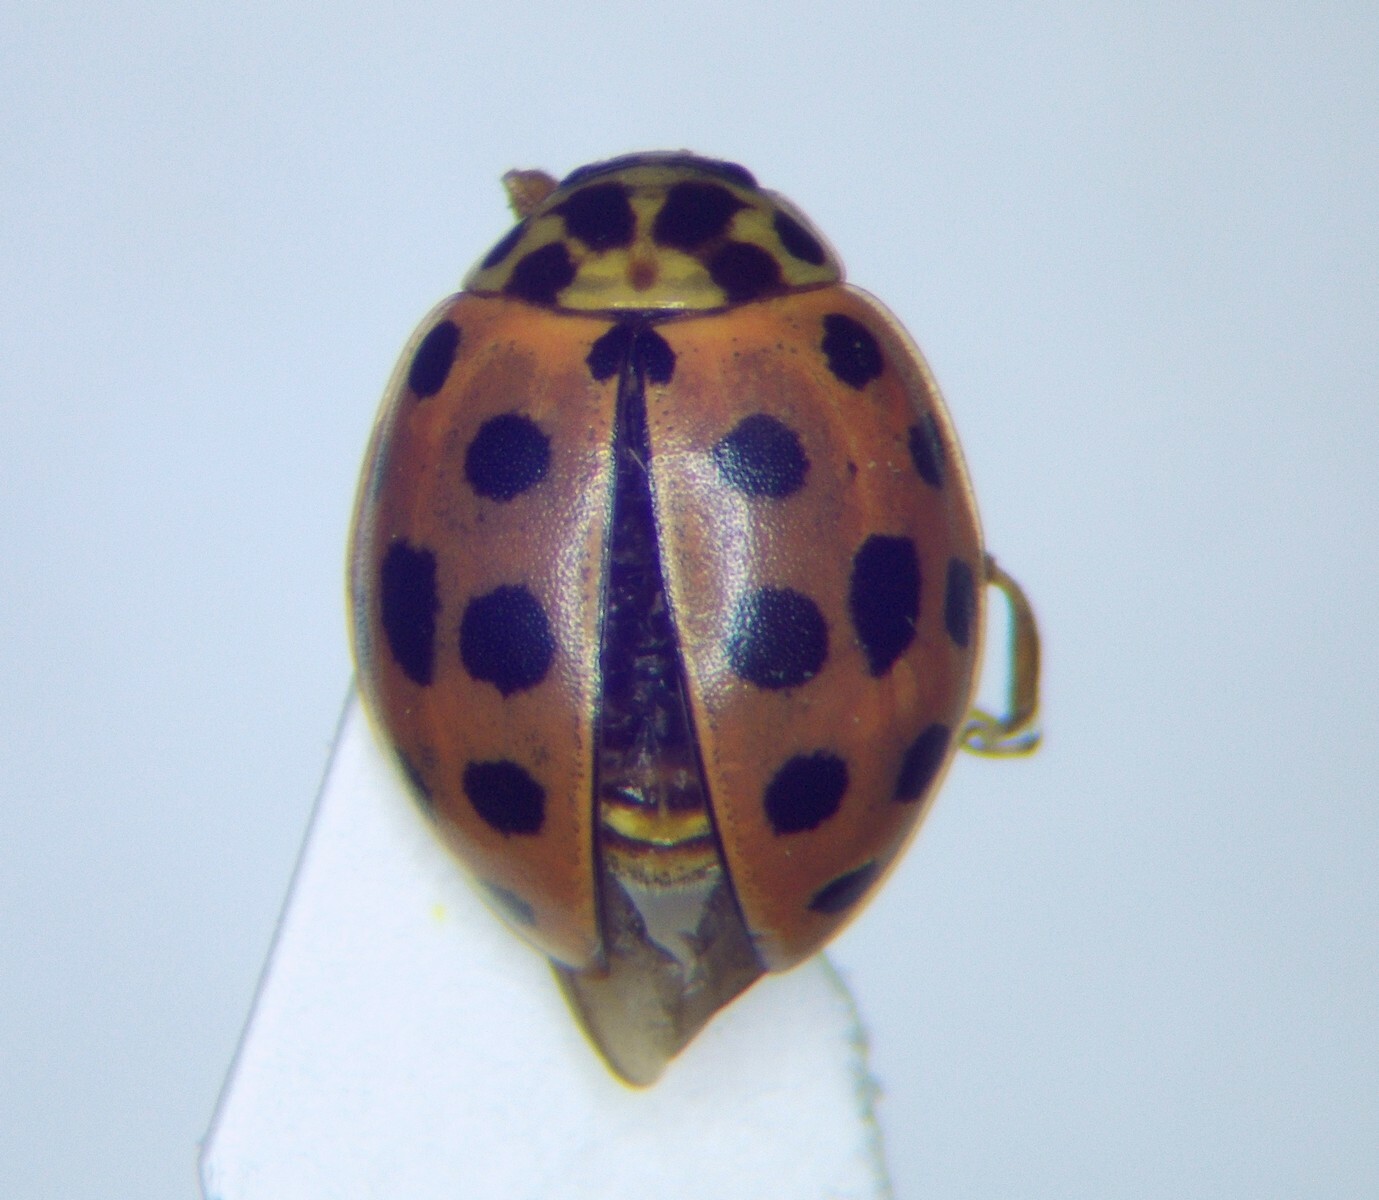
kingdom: Animalia
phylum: Arthropoda
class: Insecta
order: Coleoptera
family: Coccinellidae
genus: Bulaea
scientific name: Bulaea lichatschovi
